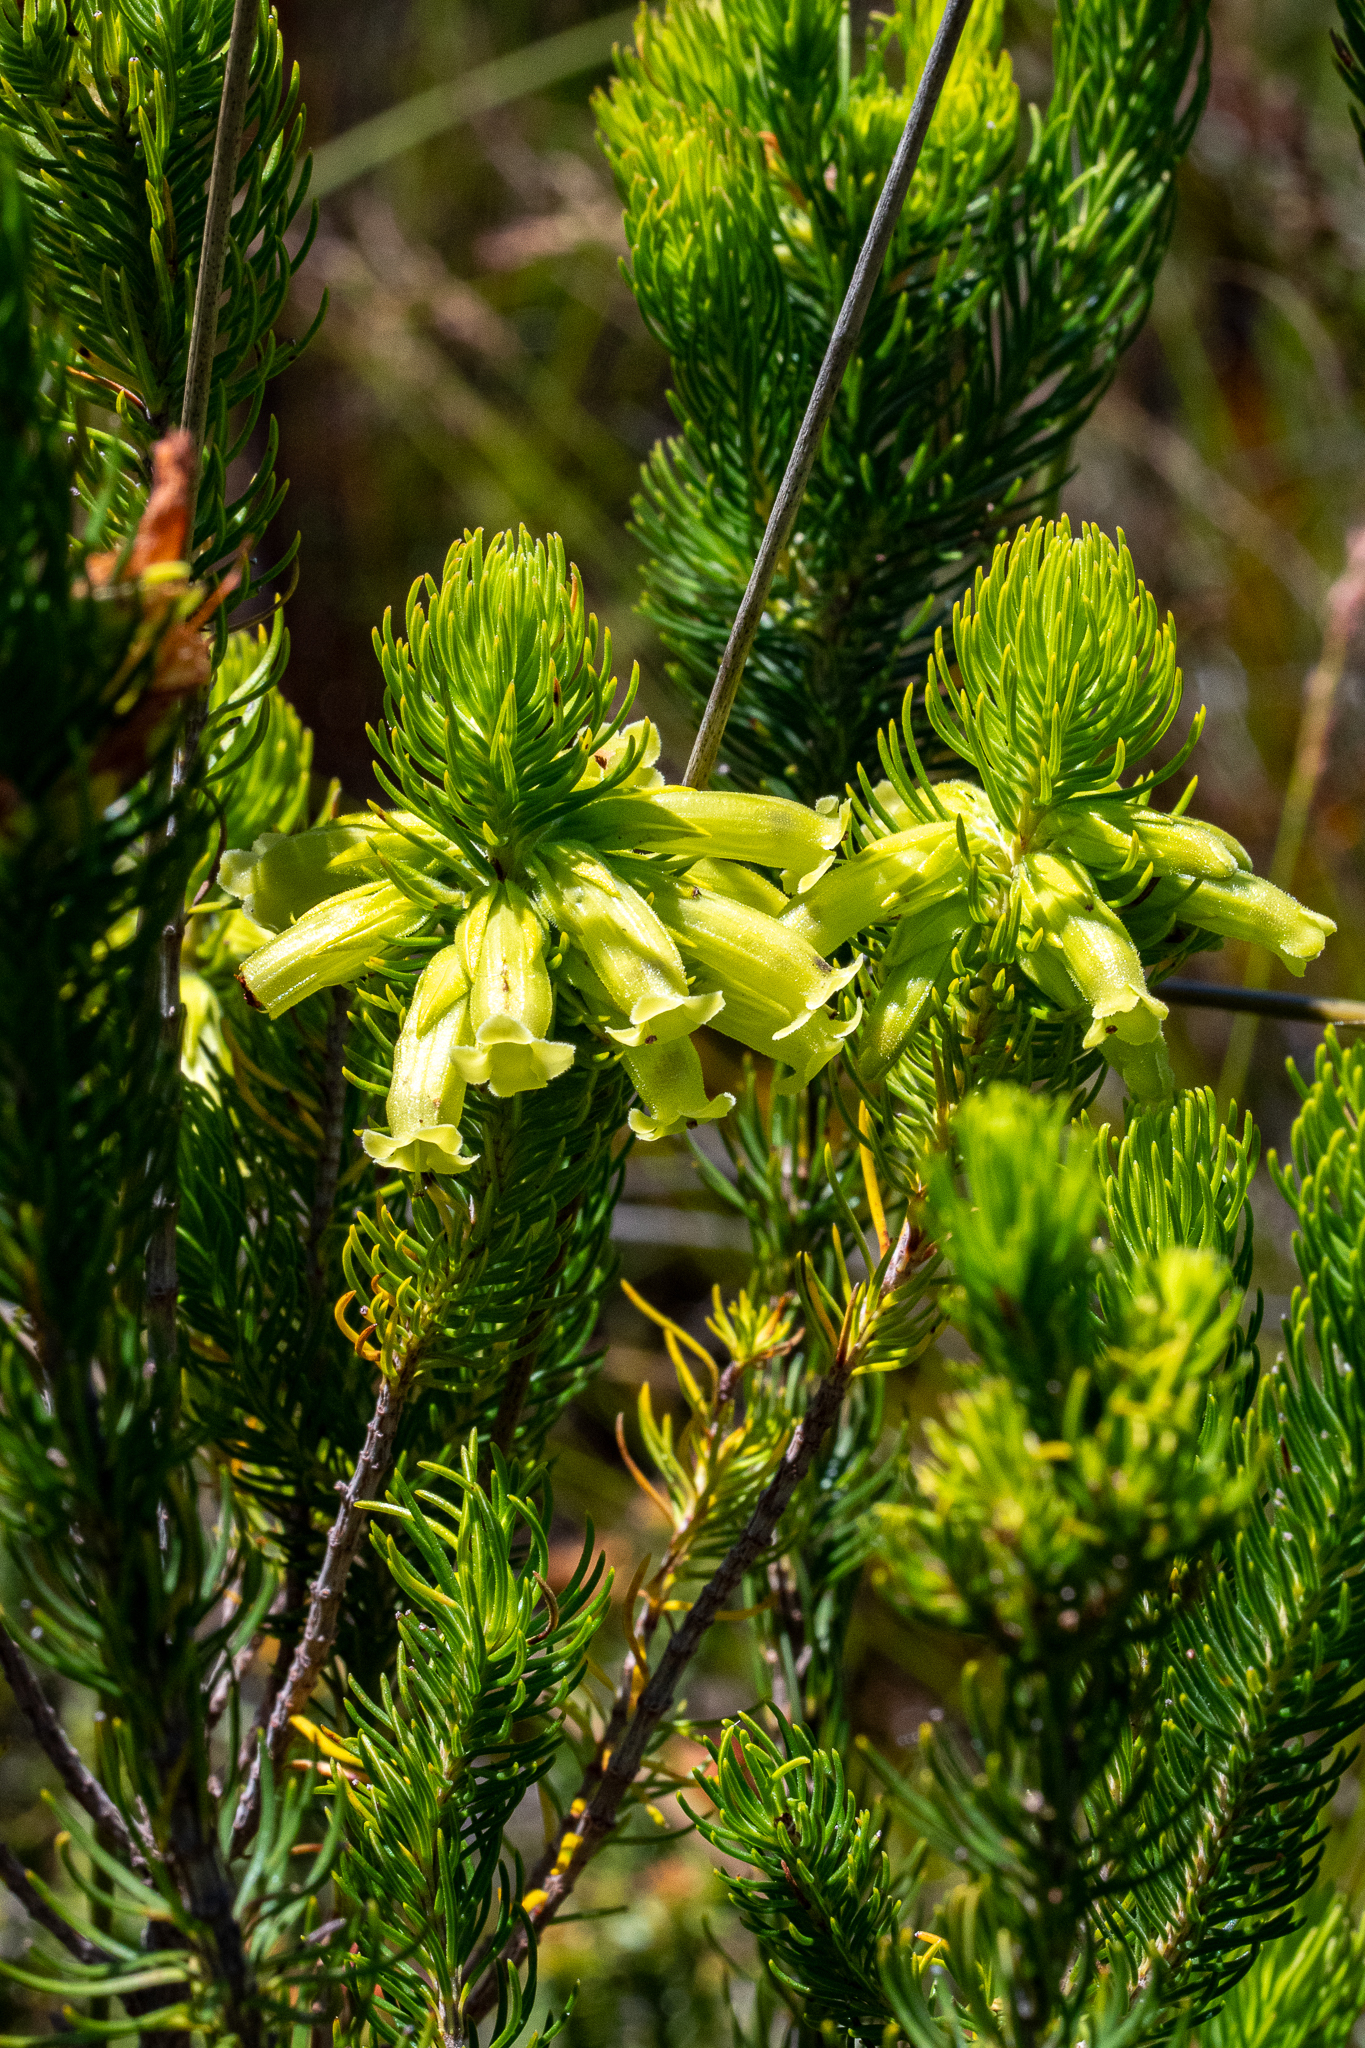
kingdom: Plantae
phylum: Tracheophyta
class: Magnoliopsida
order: Ericales
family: Ericaceae
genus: Erica
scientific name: Erica viscaria
